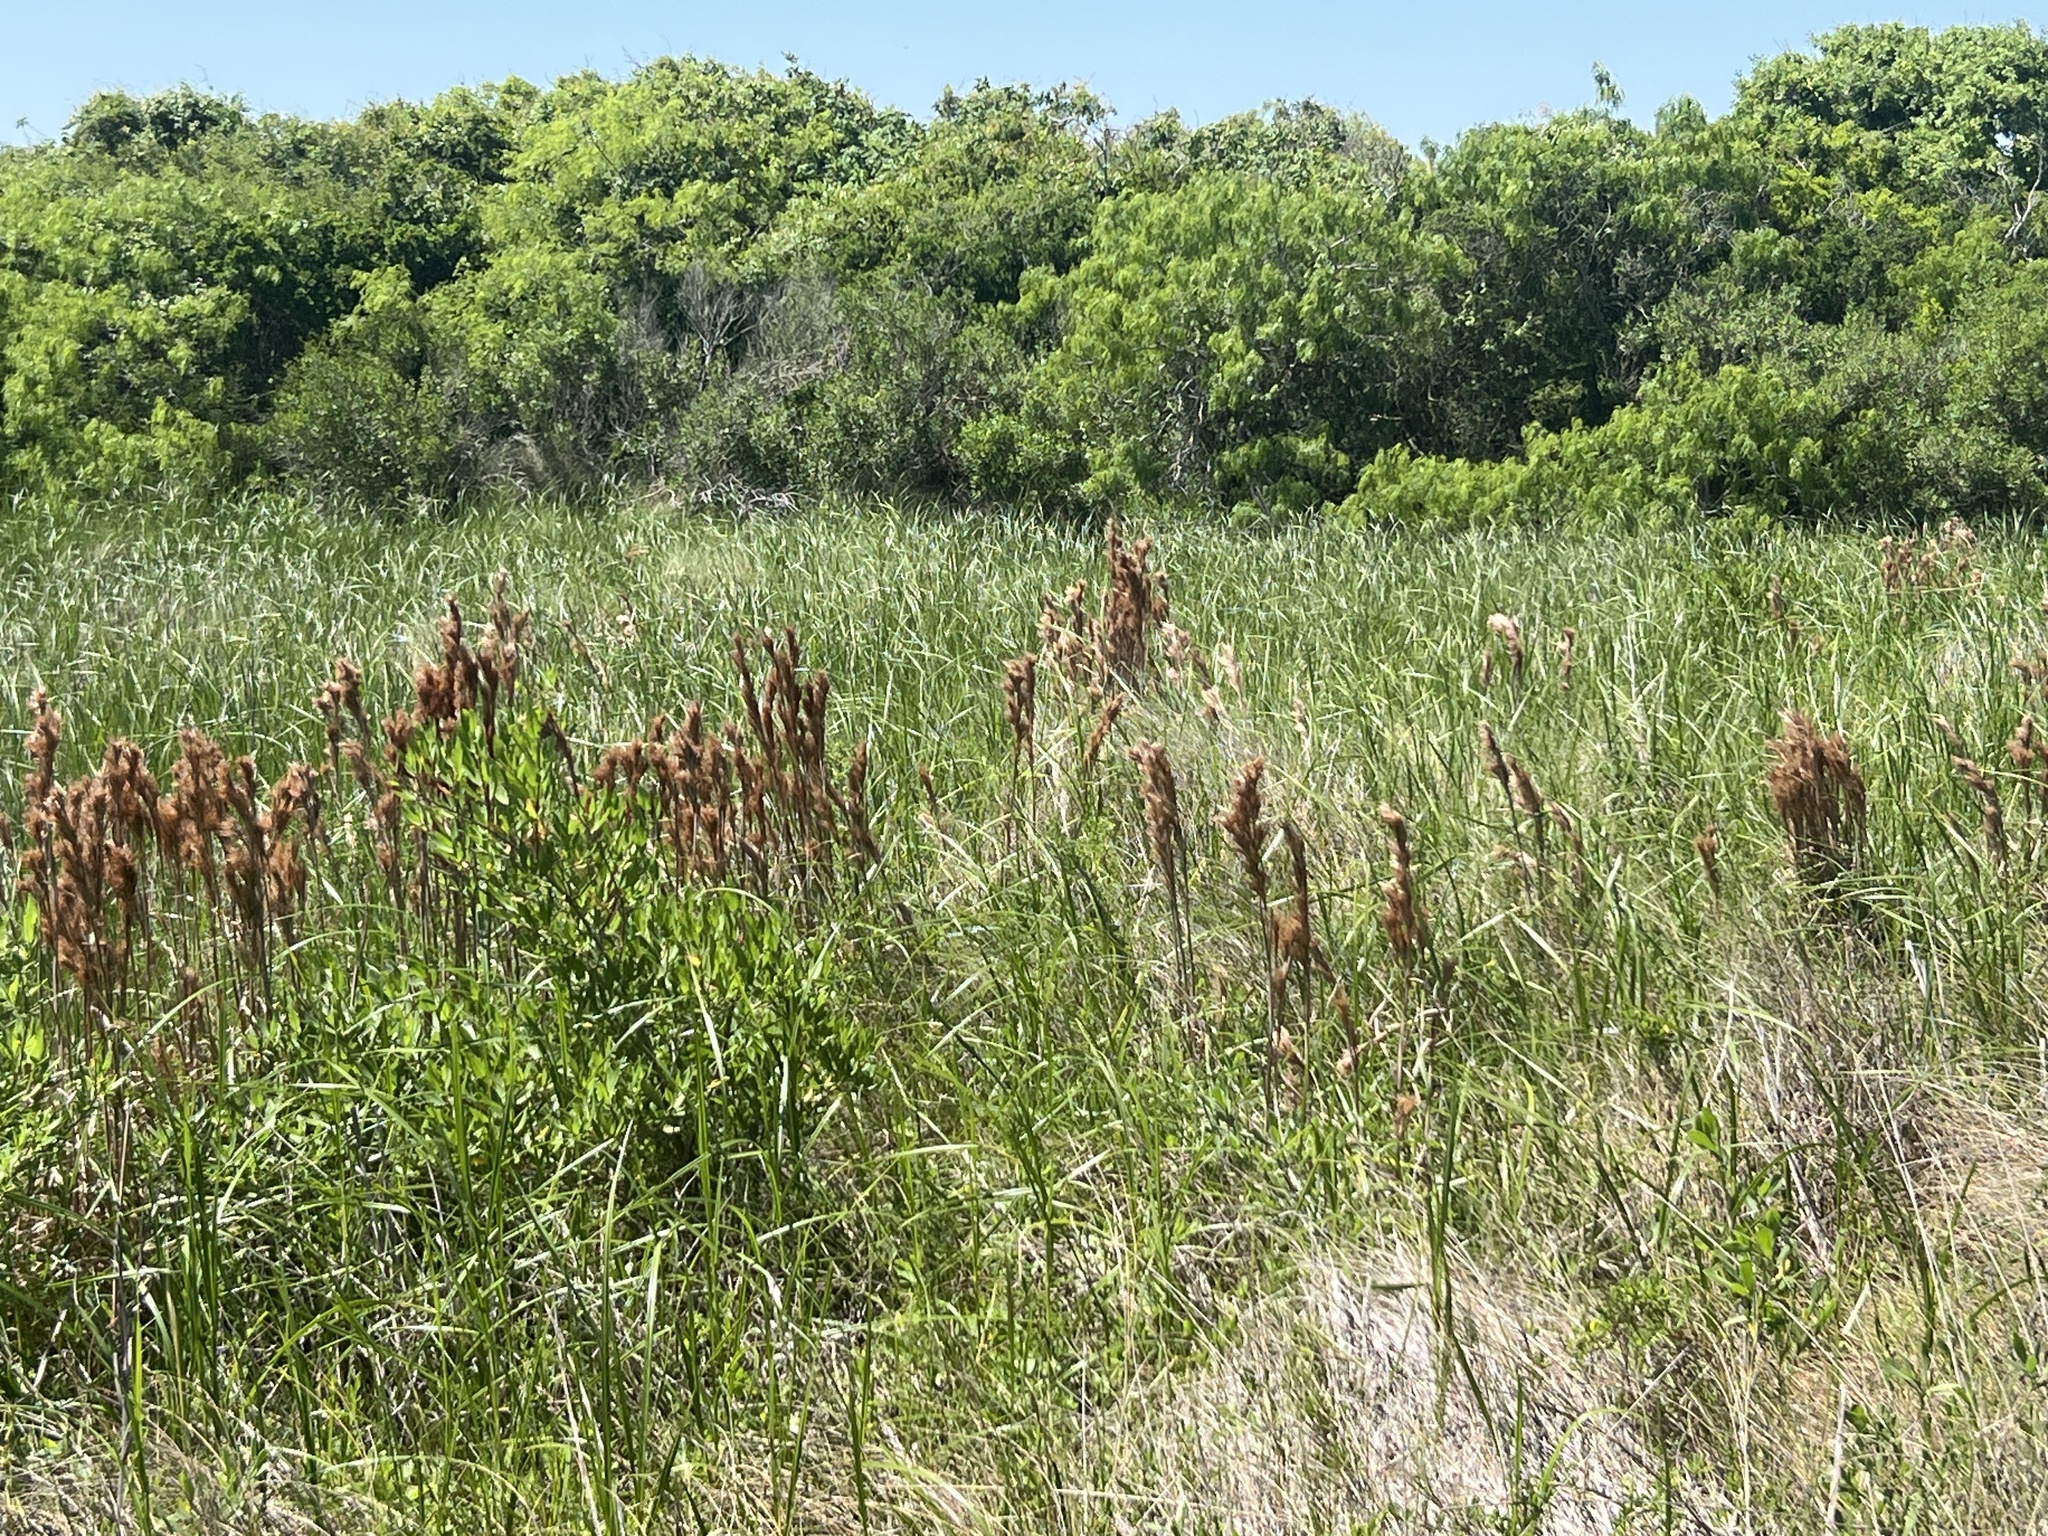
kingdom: Plantae
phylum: Tracheophyta
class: Liliopsida
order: Poales
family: Poaceae
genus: Andropogon
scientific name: Andropogon tenuispatheus
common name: Bushy bluestem
